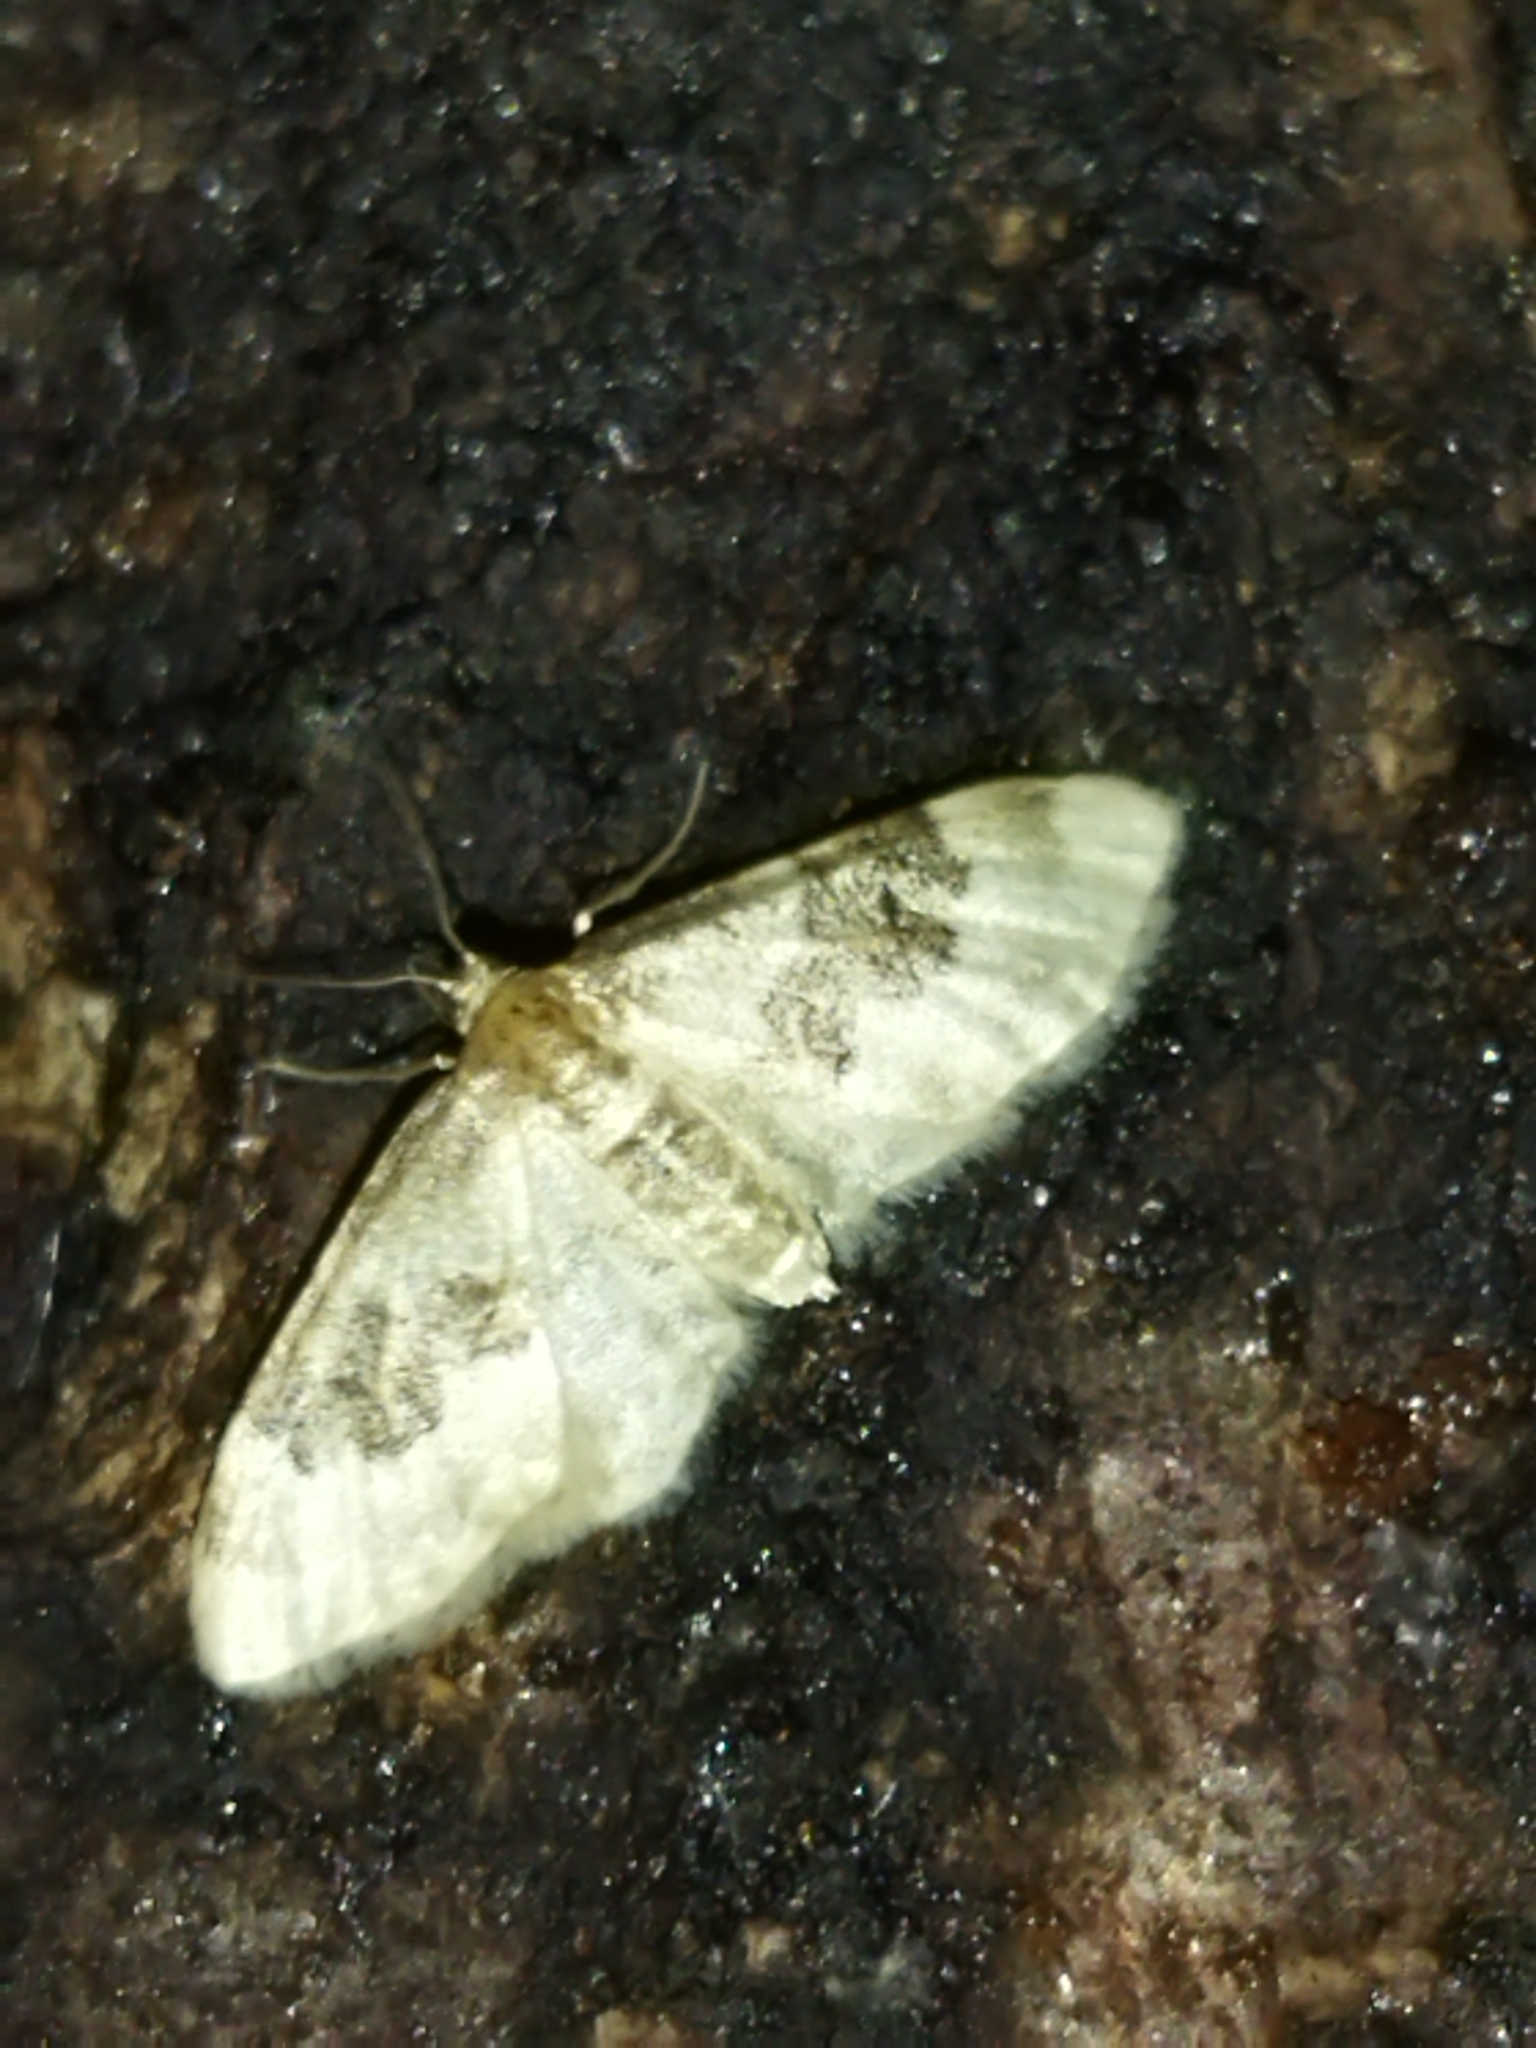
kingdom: Animalia
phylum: Arthropoda
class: Insecta
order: Lepidoptera
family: Geometridae
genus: Idaea
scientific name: Idaea rusticata
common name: Least carpet
